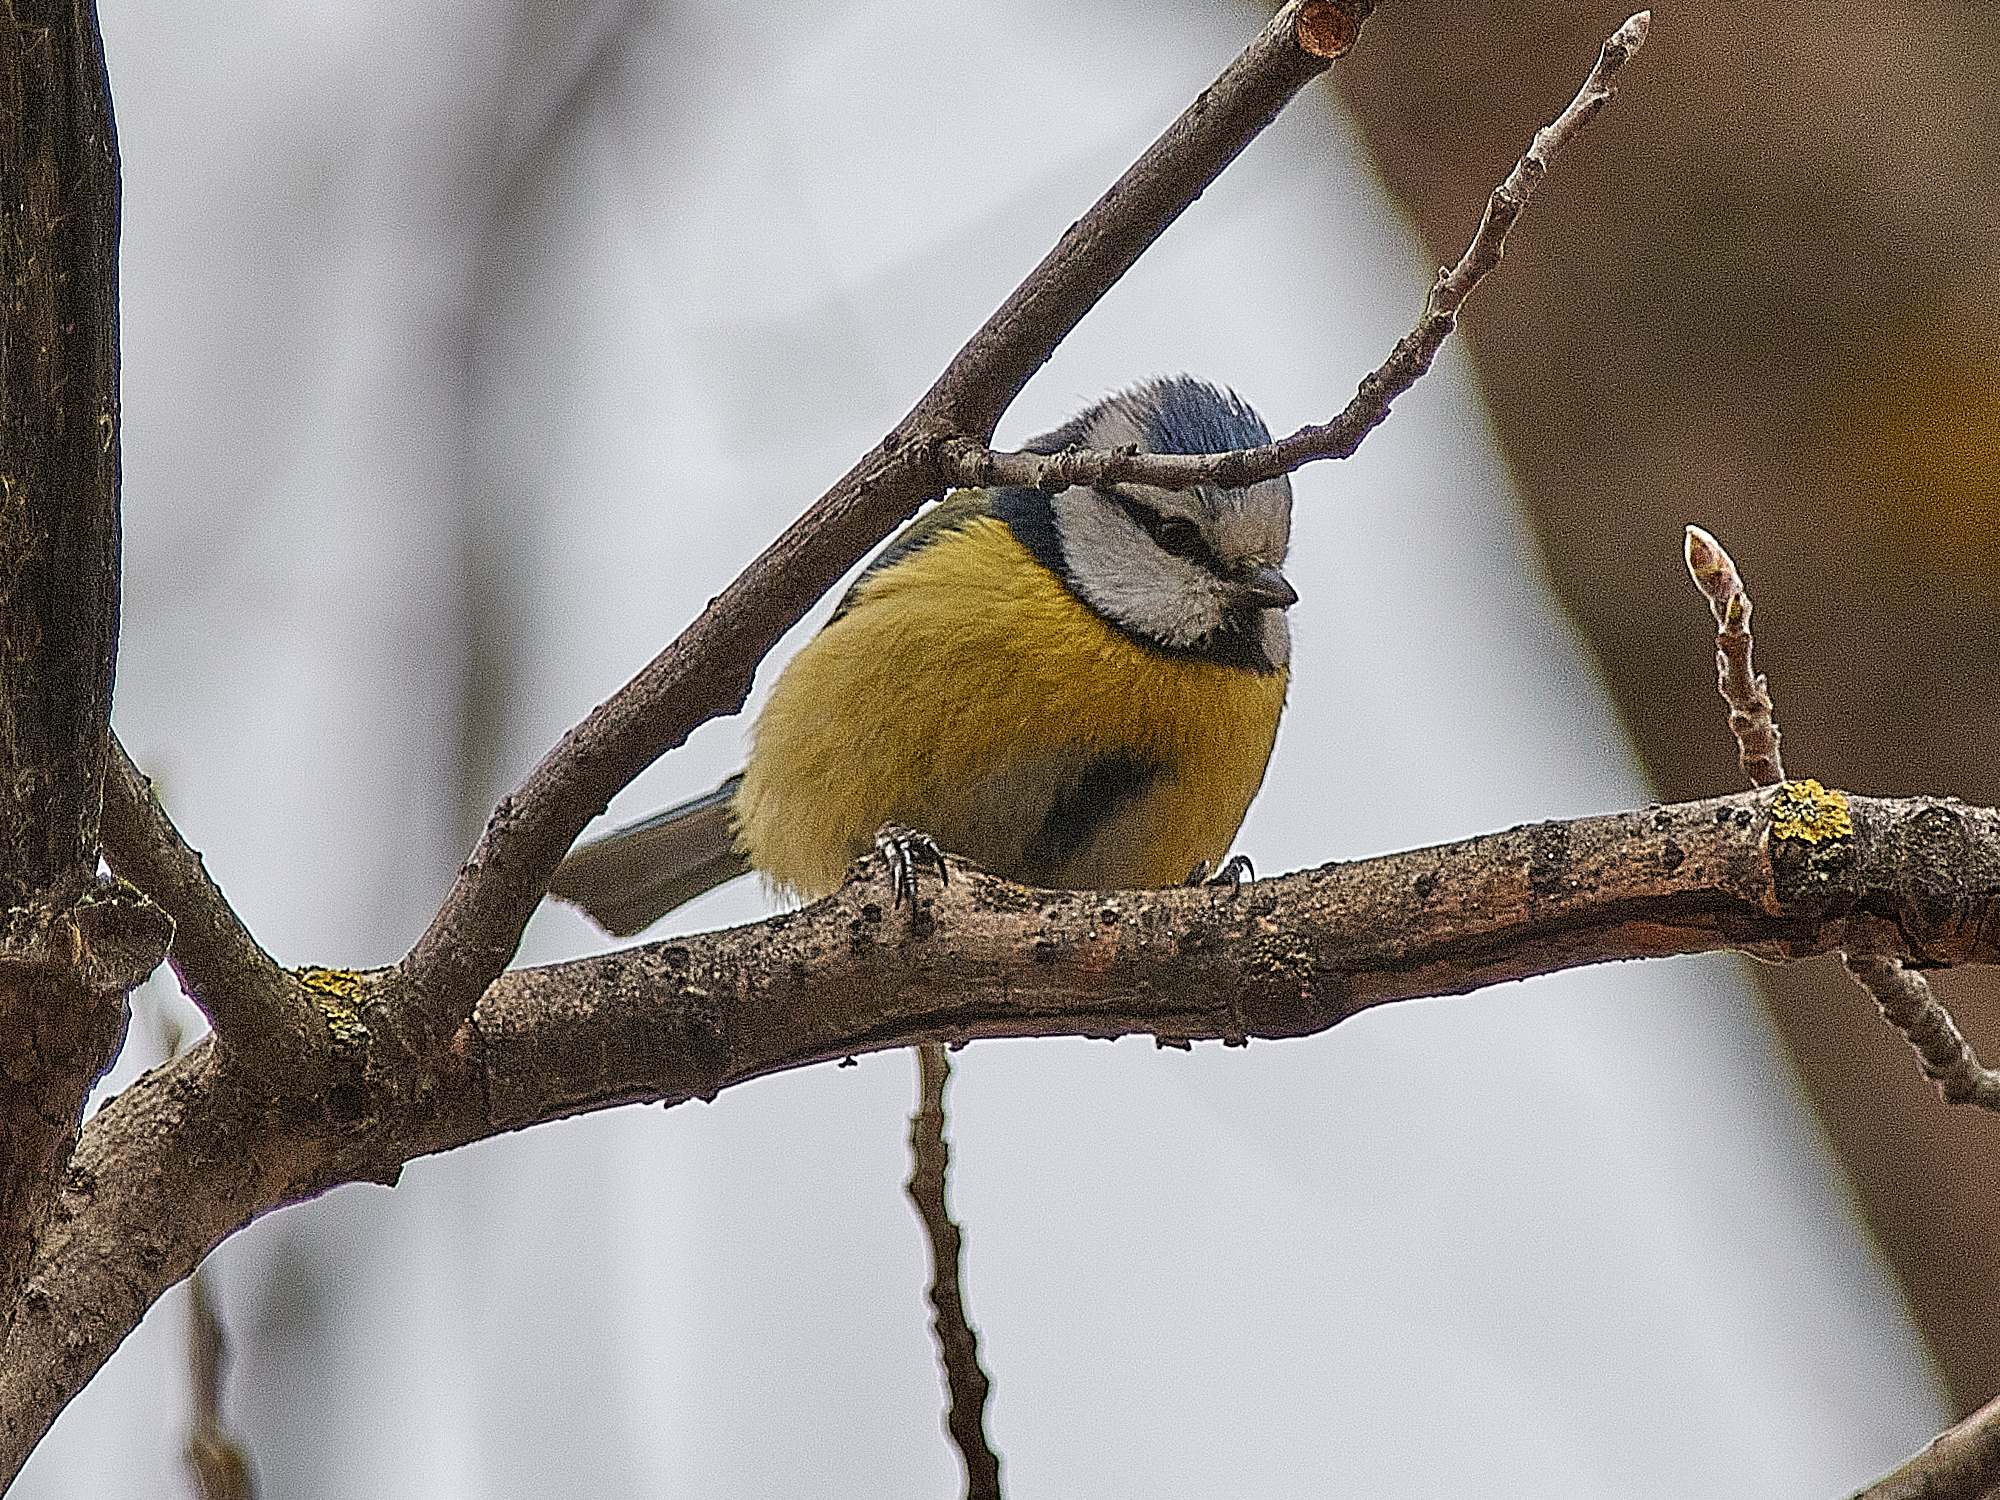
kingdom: Animalia
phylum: Chordata
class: Aves
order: Passeriformes
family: Paridae
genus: Cyanistes
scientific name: Cyanistes caeruleus
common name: Eurasian blue tit
